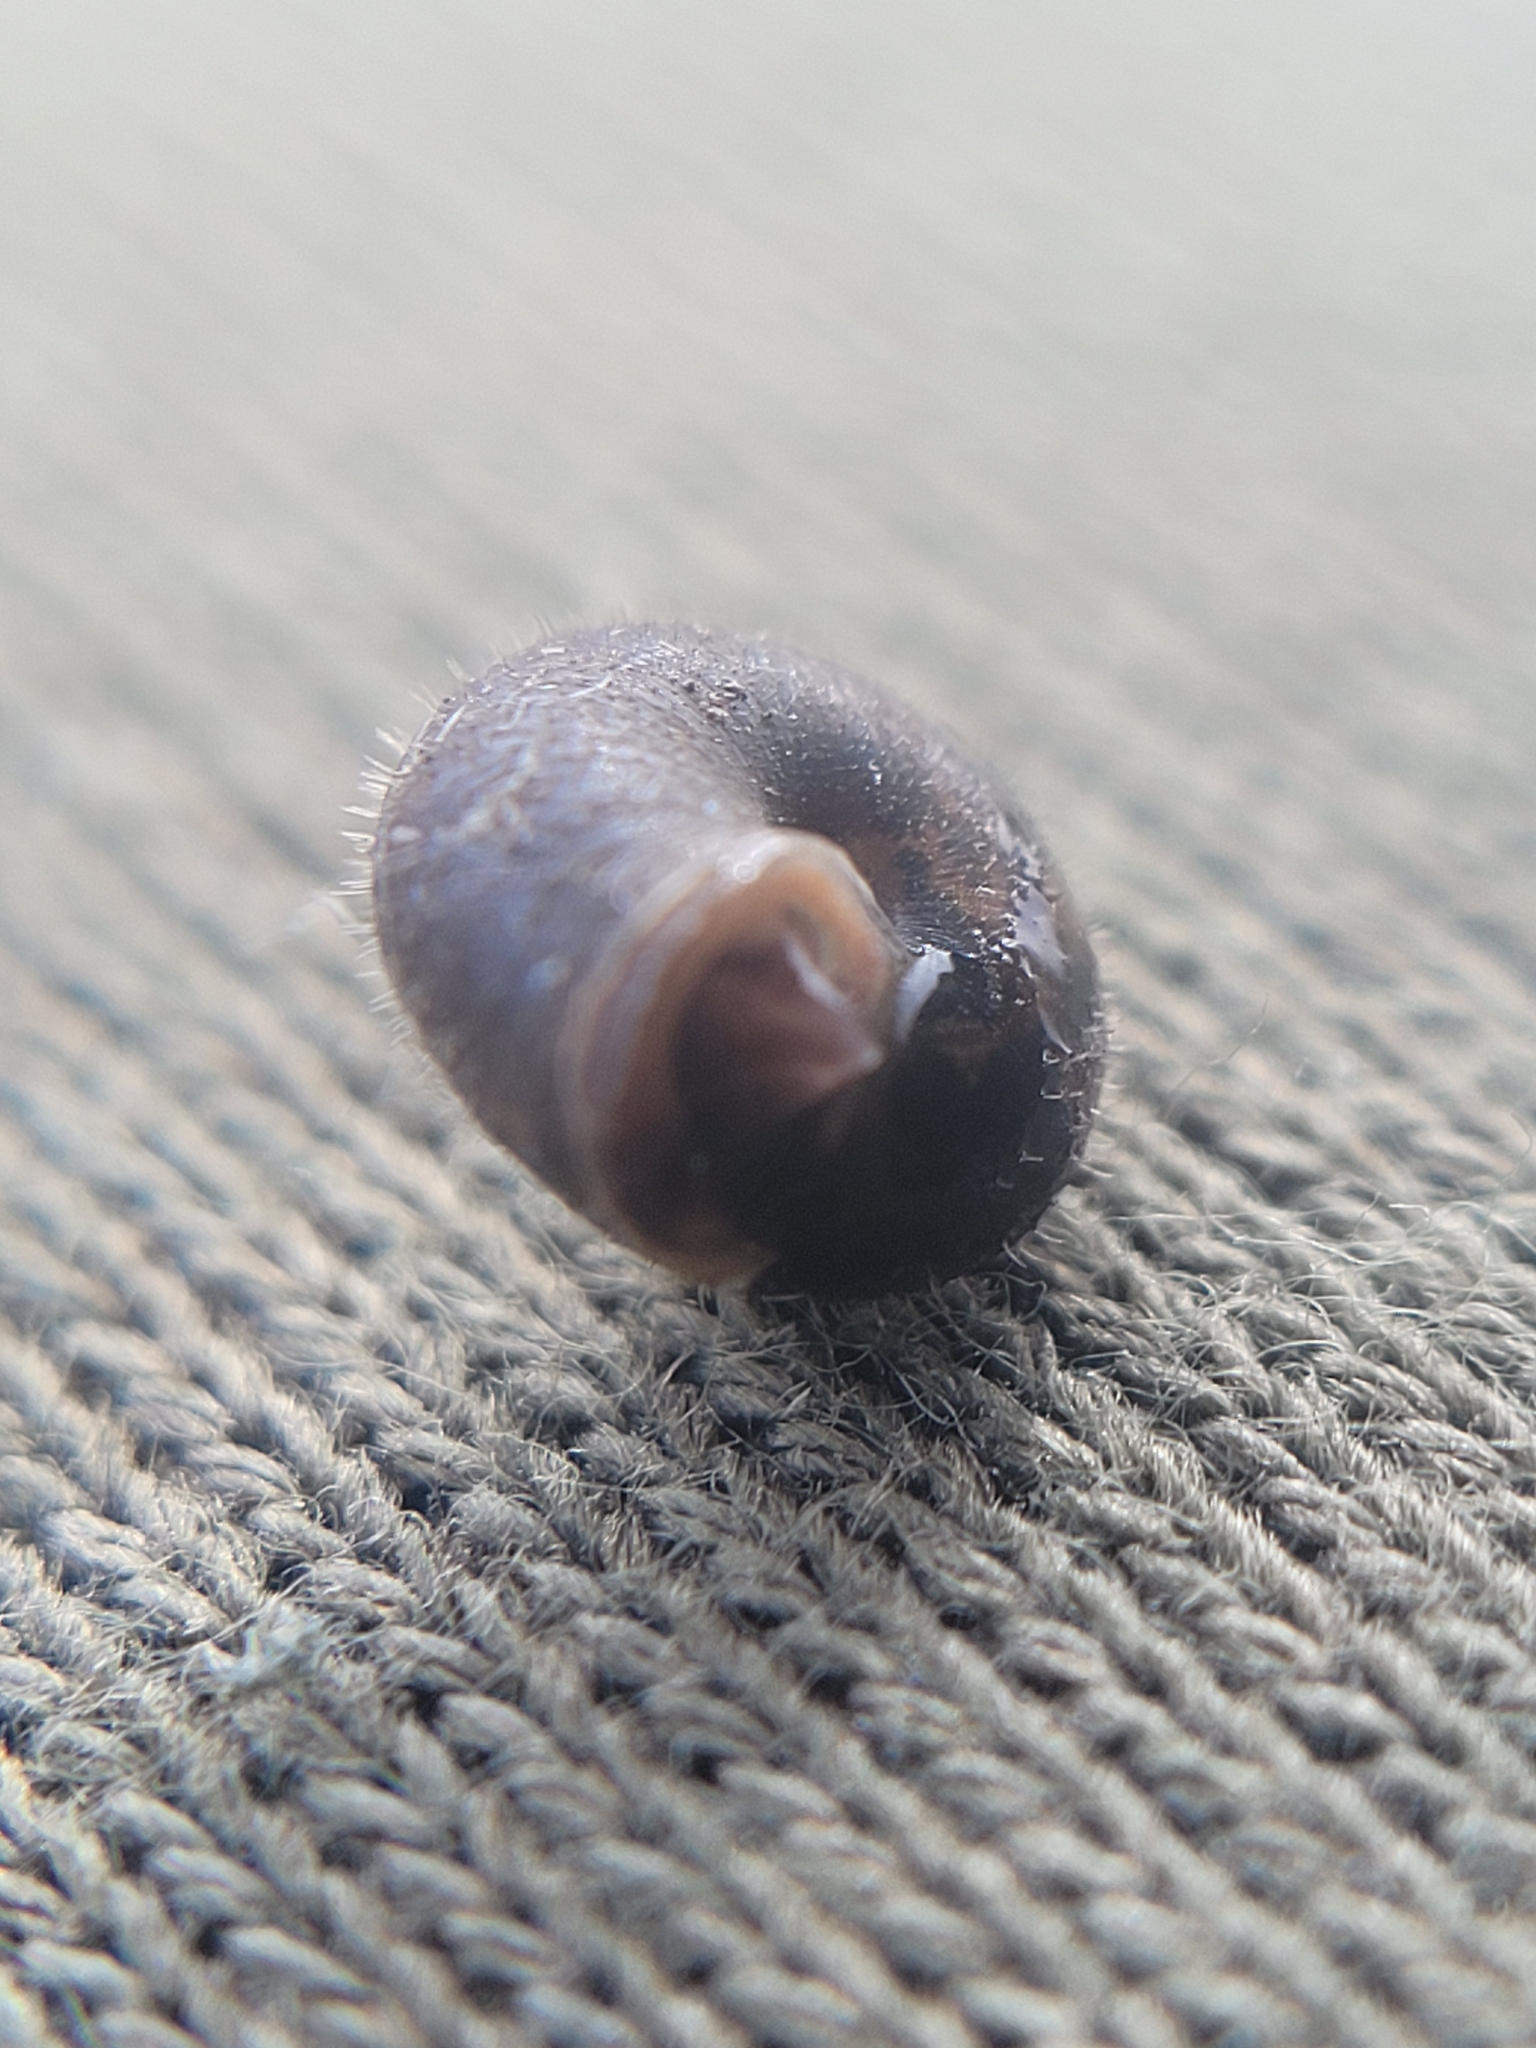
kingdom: Animalia
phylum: Mollusca
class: Gastropoda
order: Stylommatophora
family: Hygromiidae
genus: Trochulus
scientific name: Trochulus hispidus
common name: Hairy snail
